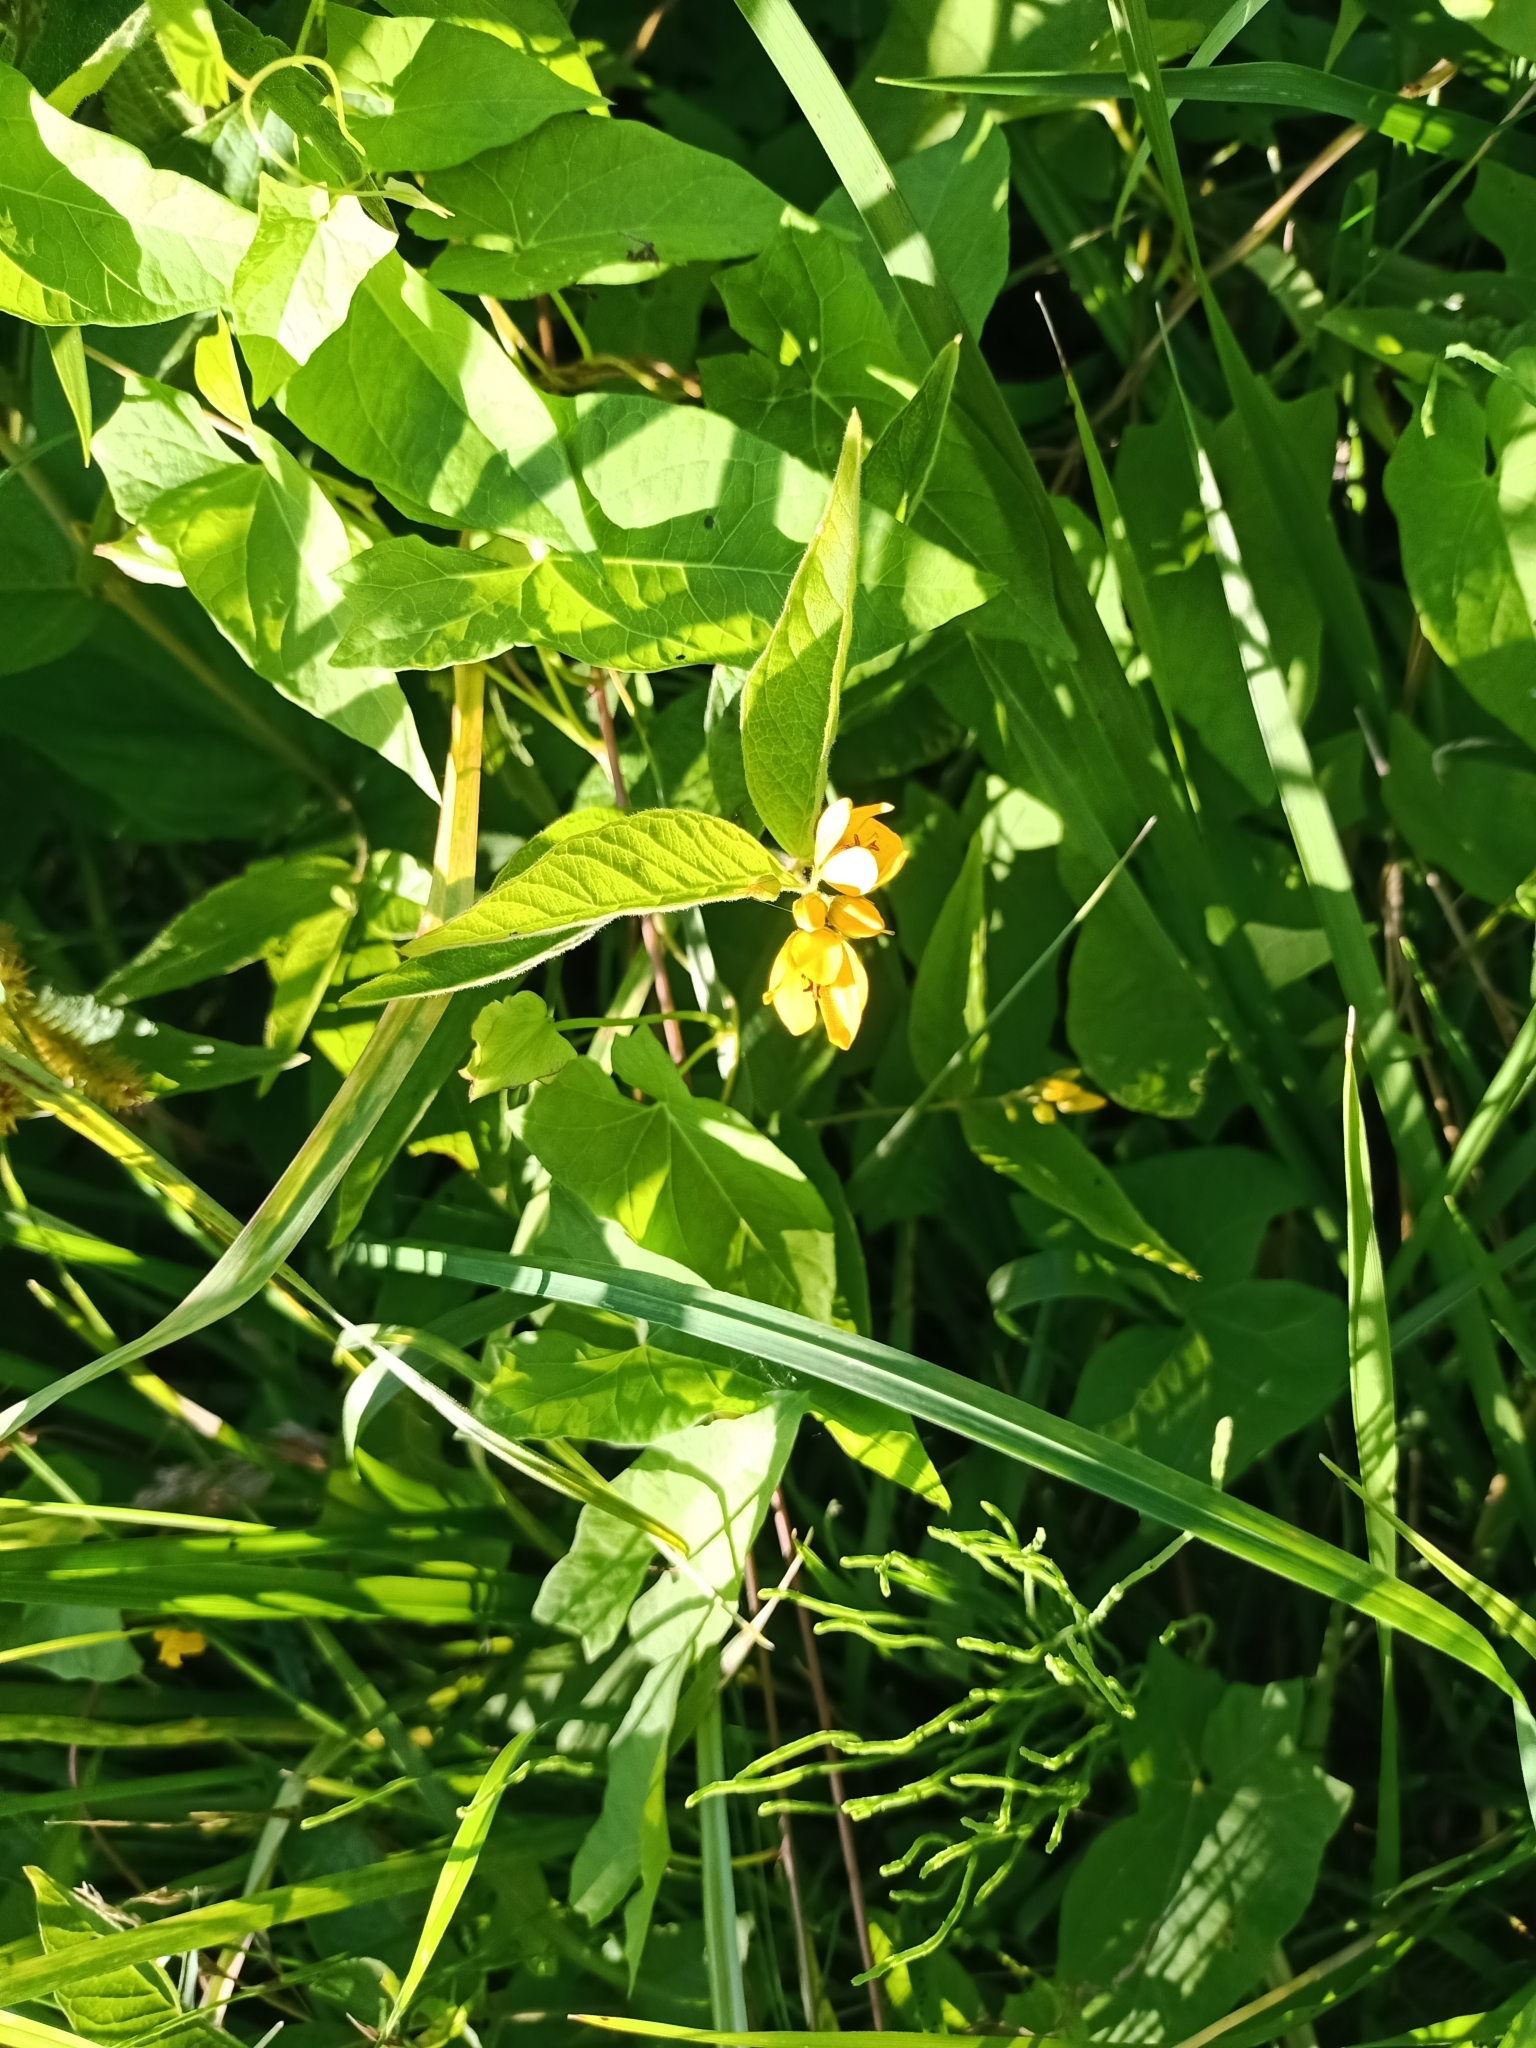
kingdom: Plantae
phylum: Tracheophyta
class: Magnoliopsida
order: Ericales
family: Primulaceae
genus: Lysimachia
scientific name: Lysimachia vulgaris
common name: Yellow loosestrife
